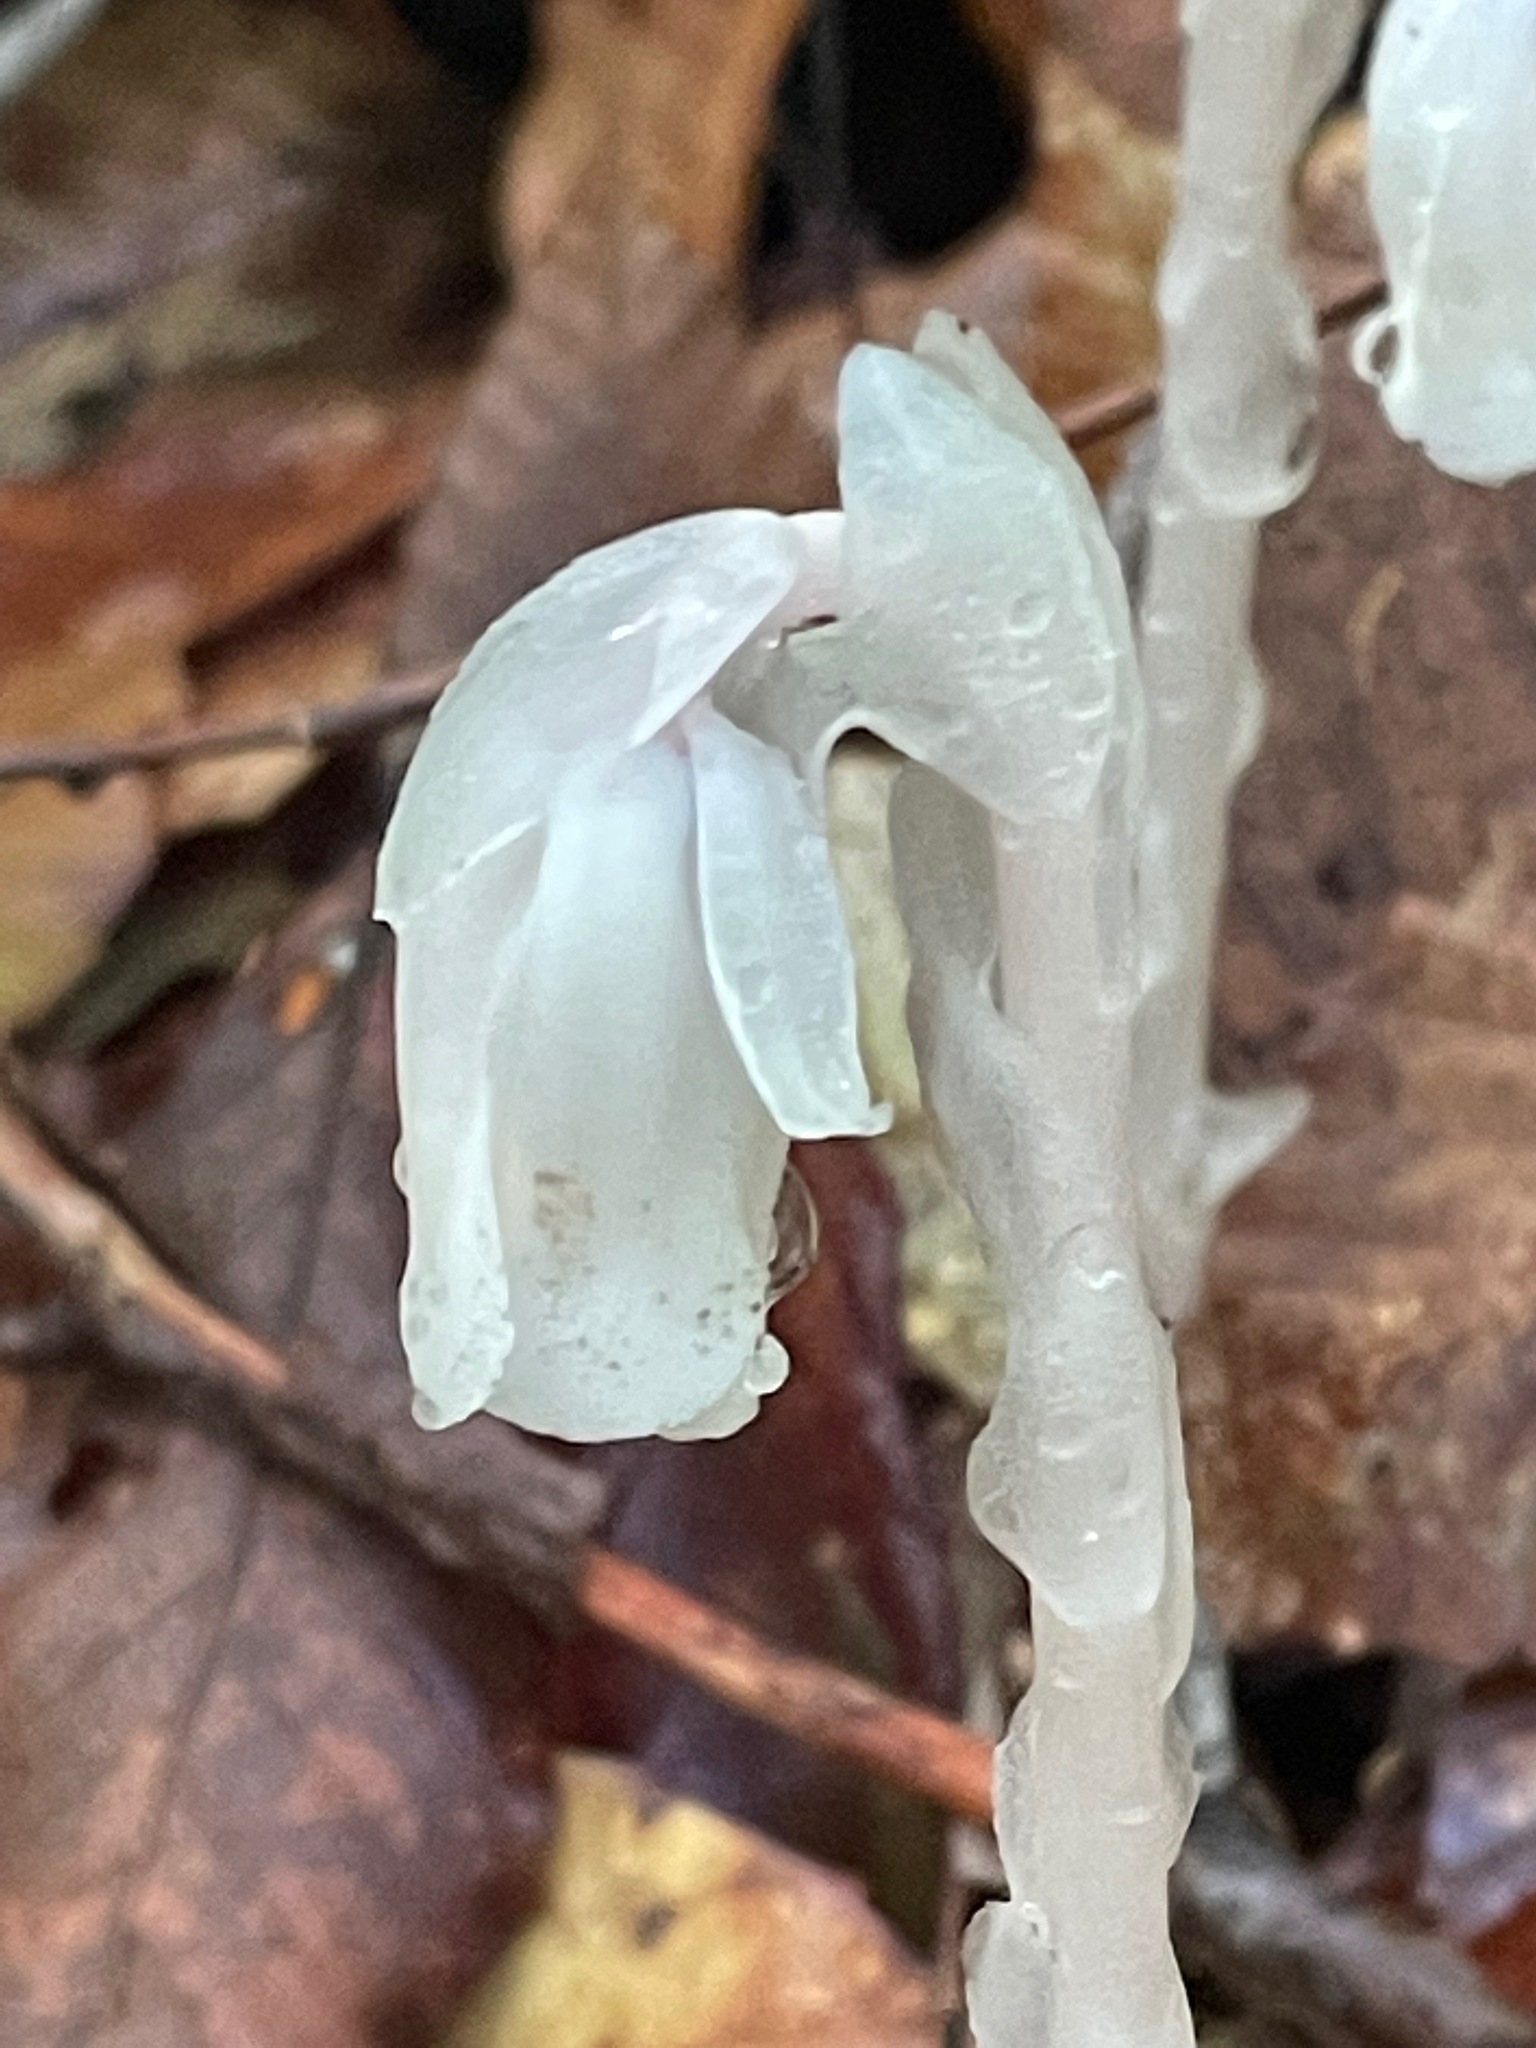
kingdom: Plantae
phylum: Tracheophyta
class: Magnoliopsida
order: Ericales
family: Ericaceae
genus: Monotropa
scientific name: Monotropa uniflora
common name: Convulsion root
